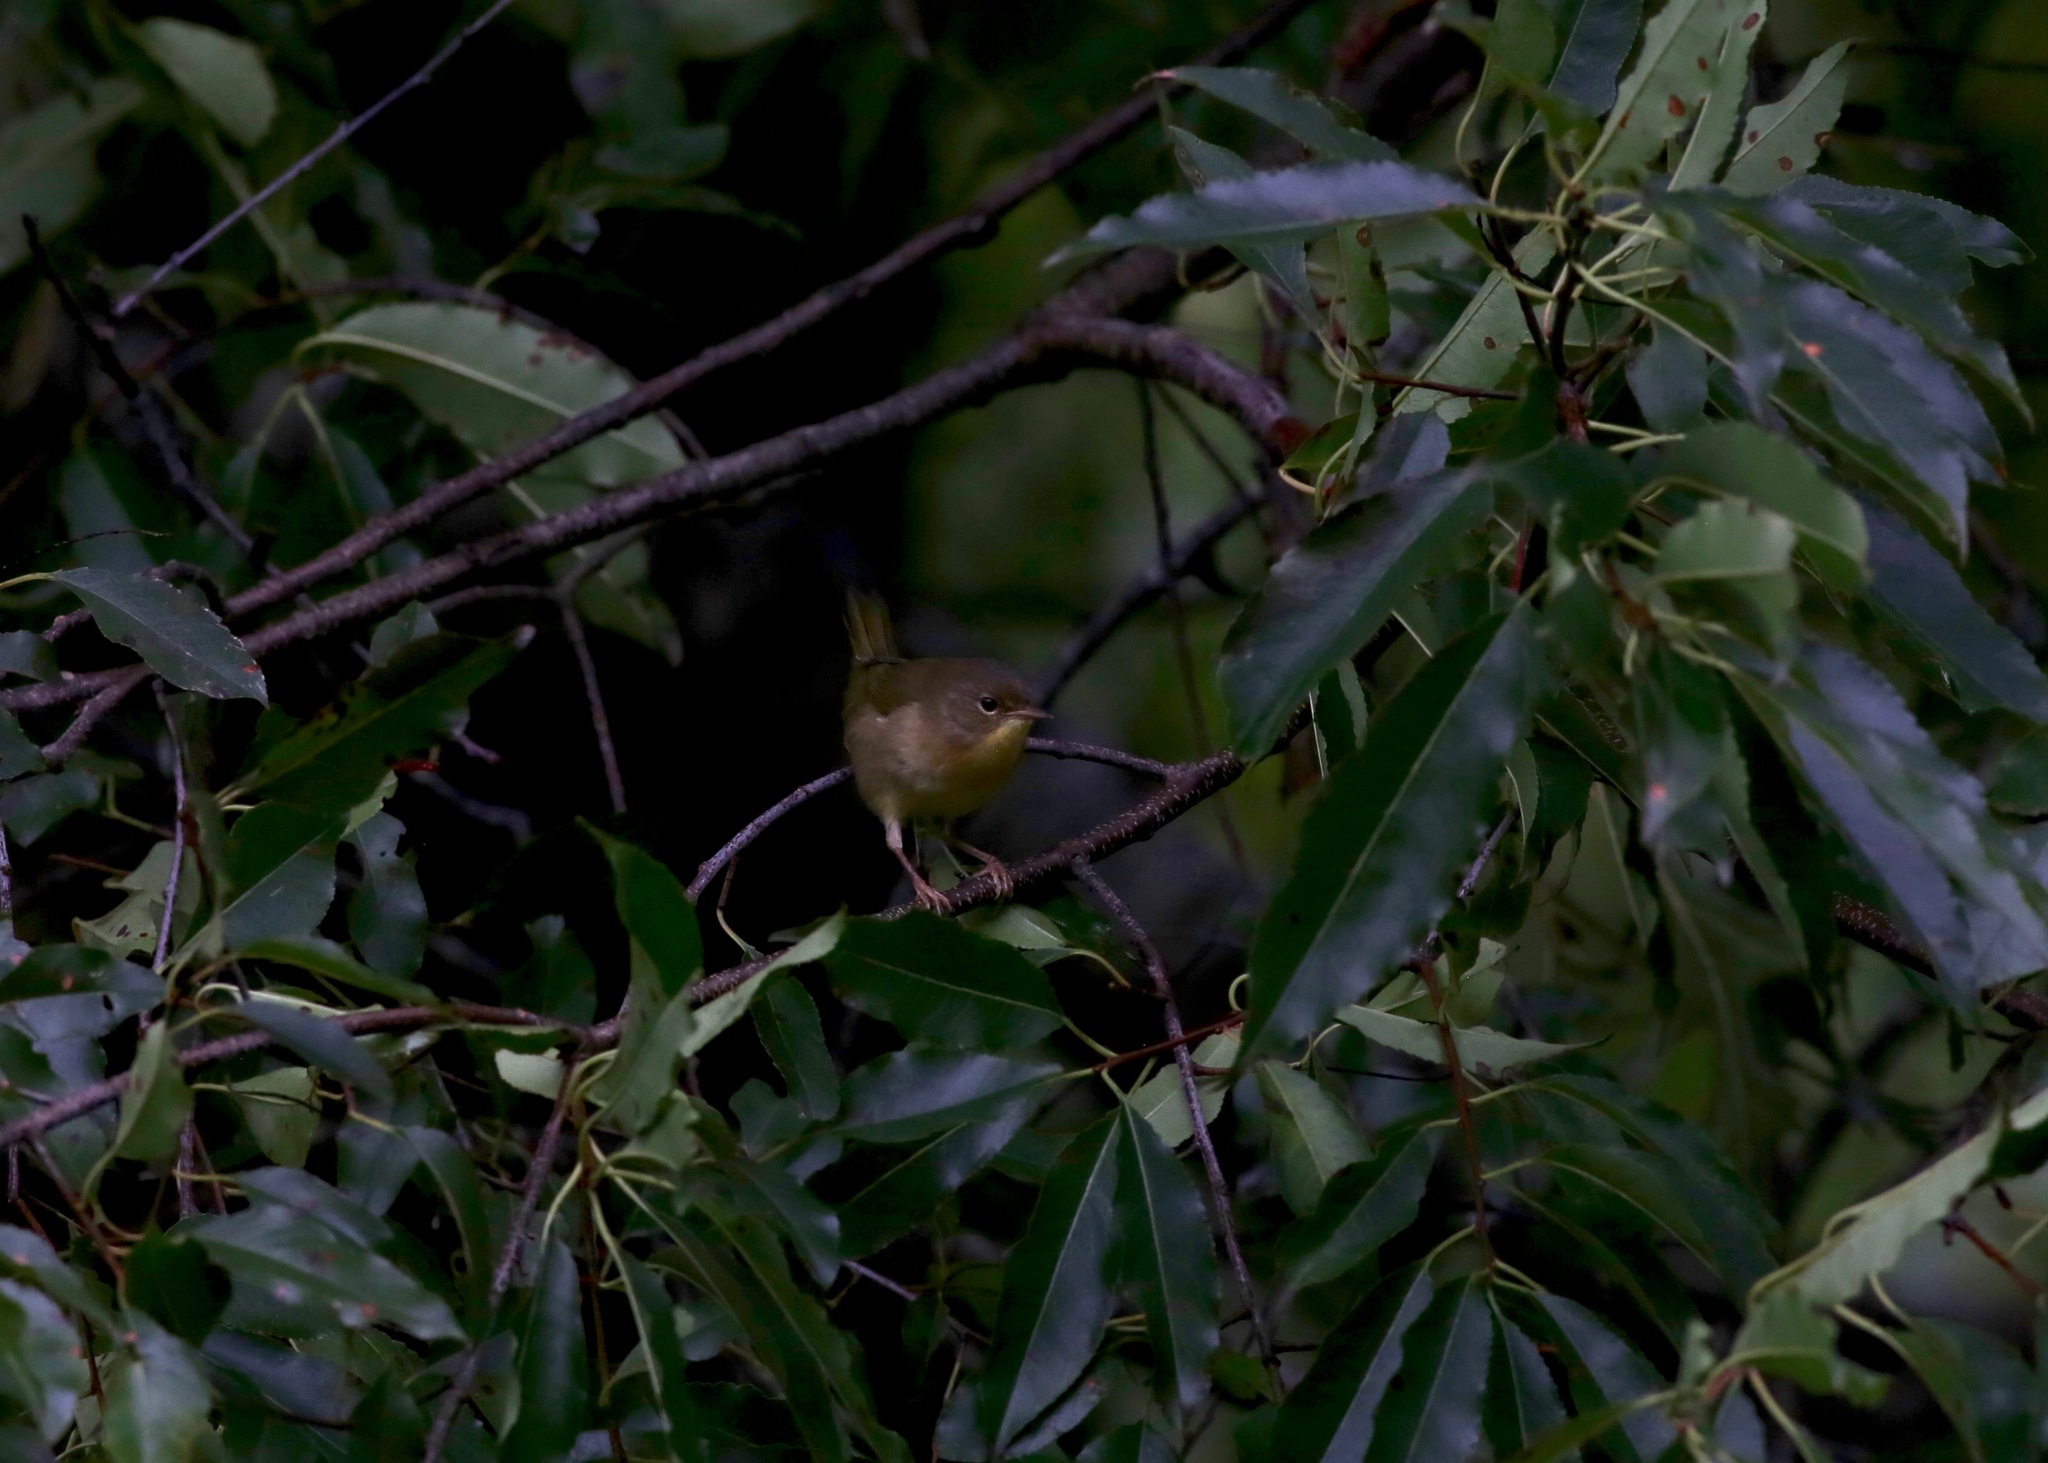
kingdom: Animalia
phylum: Chordata
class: Aves
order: Passeriformes
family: Parulidae
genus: Geothlypis
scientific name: Geothlypis trichas
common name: Common yellowthroat
